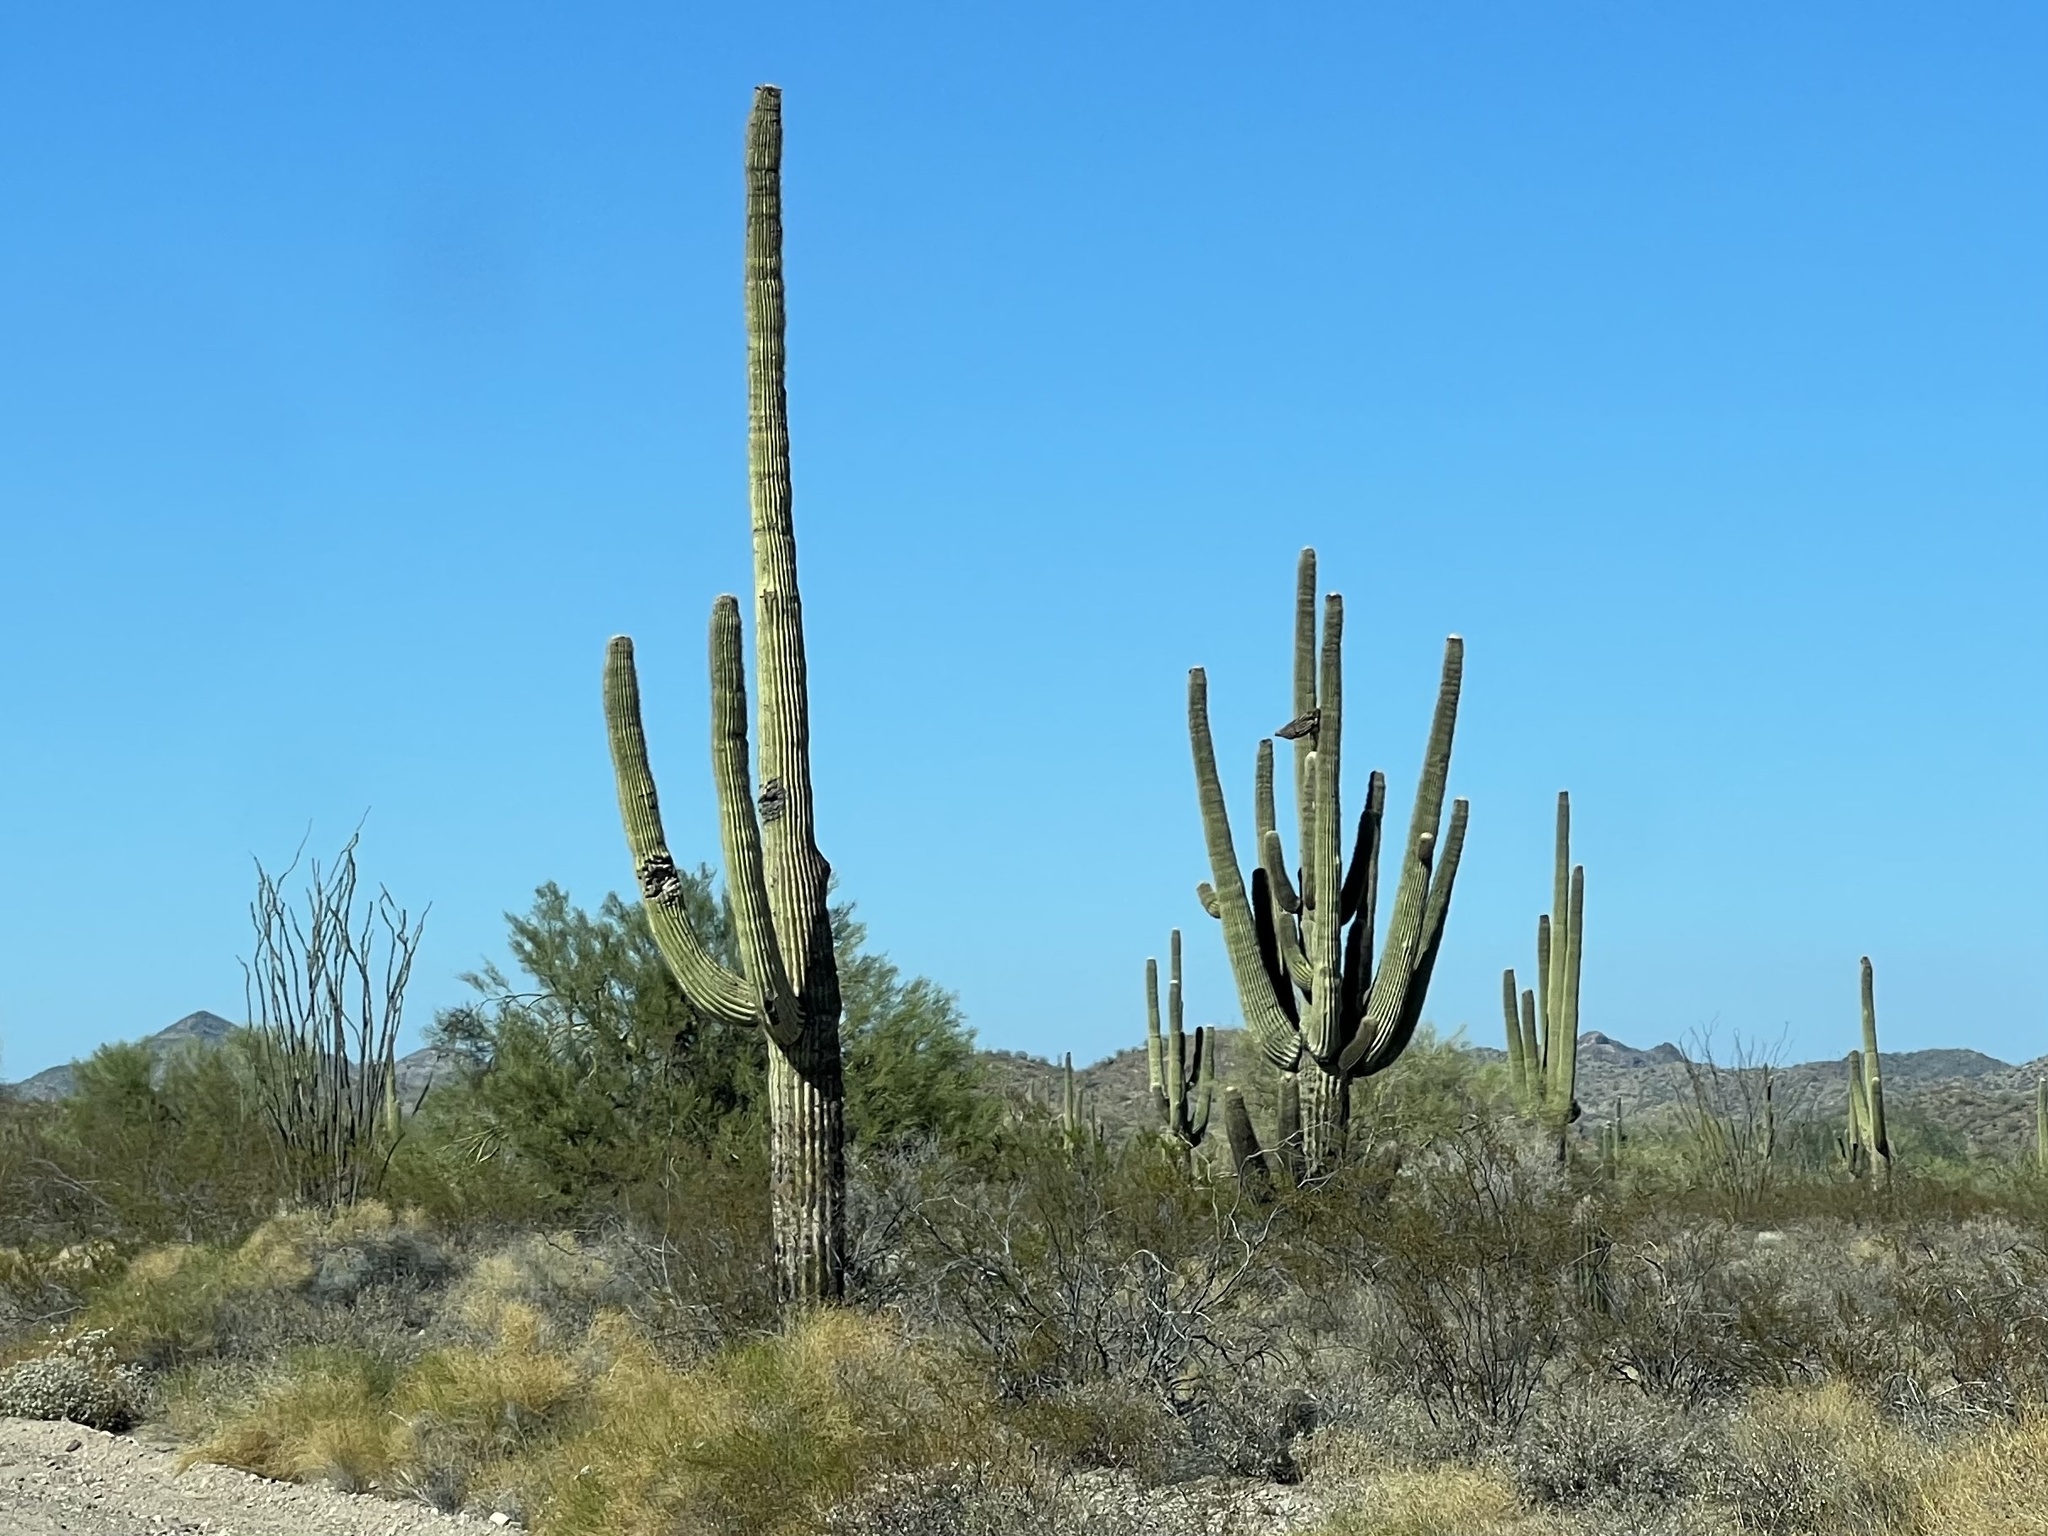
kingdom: Plantae
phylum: Tracheophyta
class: Magnoliopsida
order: Caryophyllales
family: Cactaceae
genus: Carnegiea
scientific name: Carnegiea gigantea
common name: Saguaro
